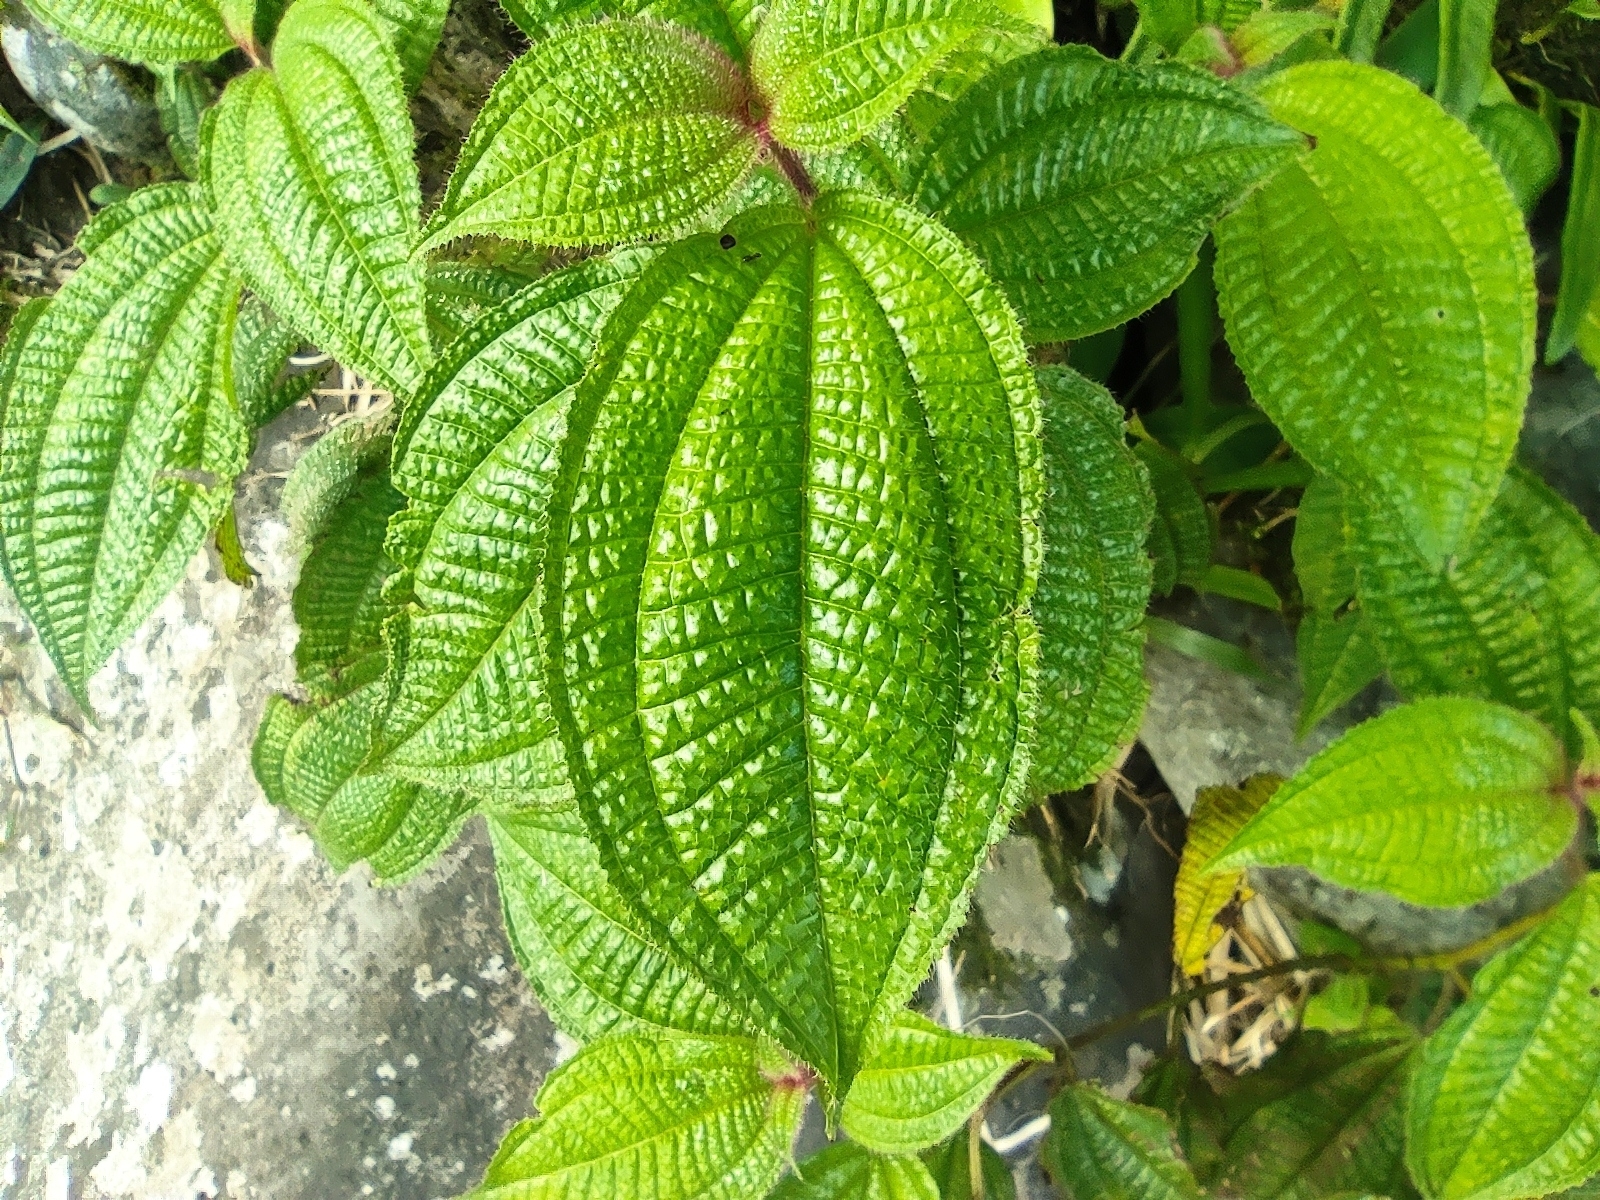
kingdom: Plantae
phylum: Tracheophyta
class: Magnoliopsida
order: Myrtales
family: Melastomataceae
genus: Miconia
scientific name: Miconia crenata
